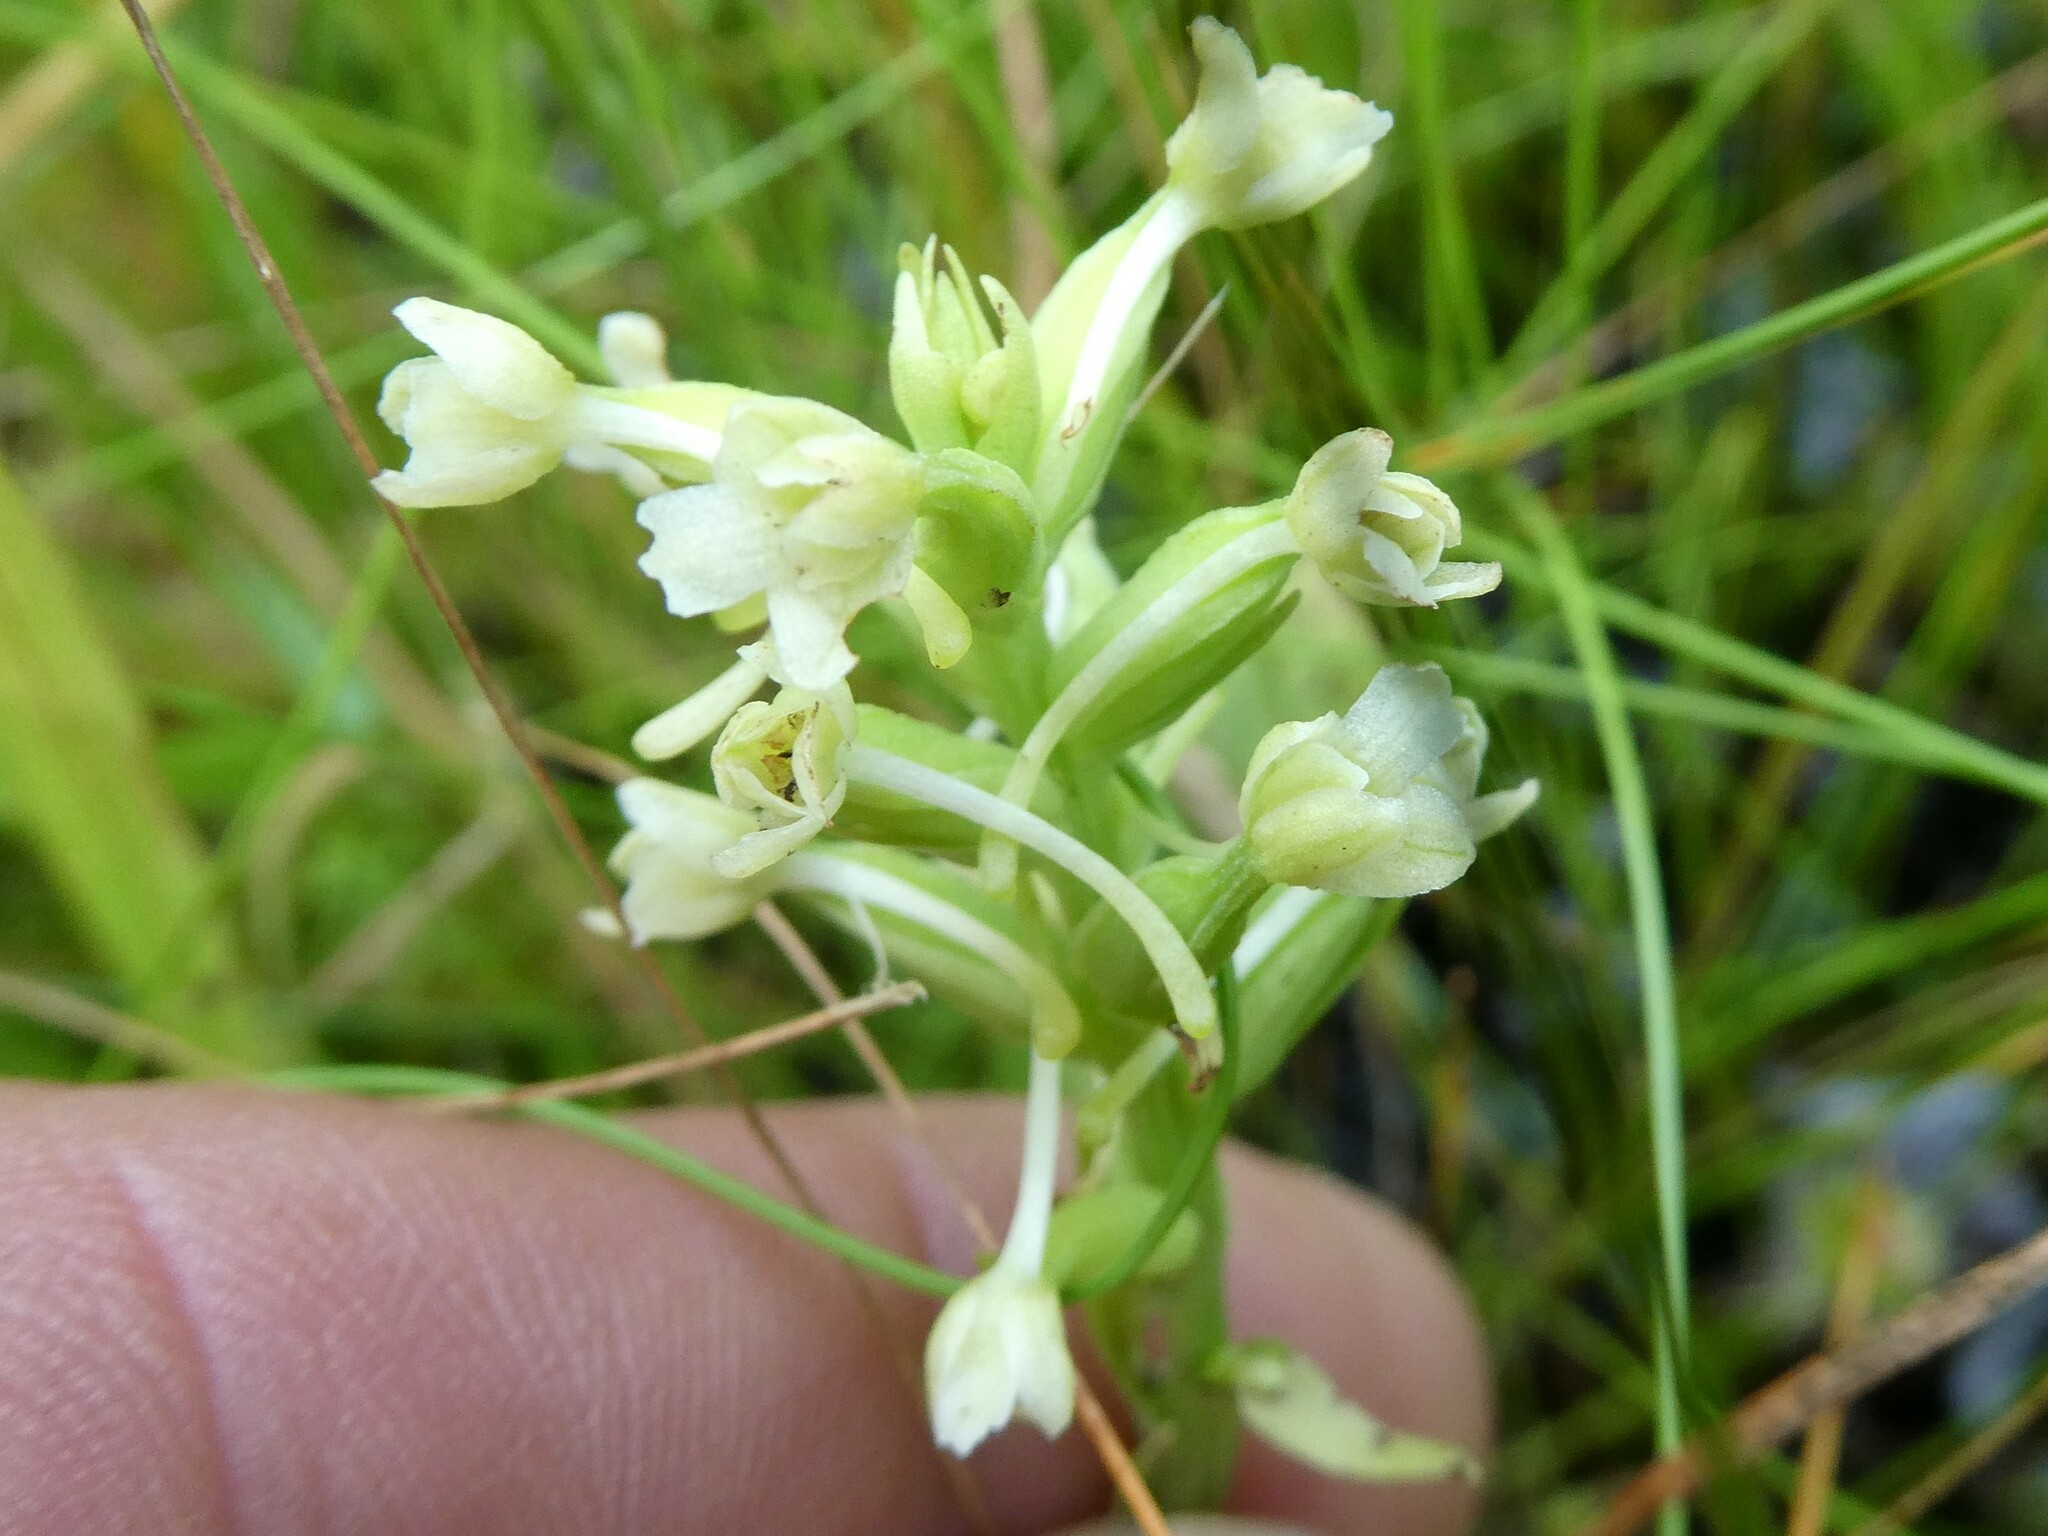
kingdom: Plantae
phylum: Tracheophyta
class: Liliopsida
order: Asparagales
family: Orchidaceae
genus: Platanthera
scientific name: Platanthera clavellata
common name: Club-spur orchid
